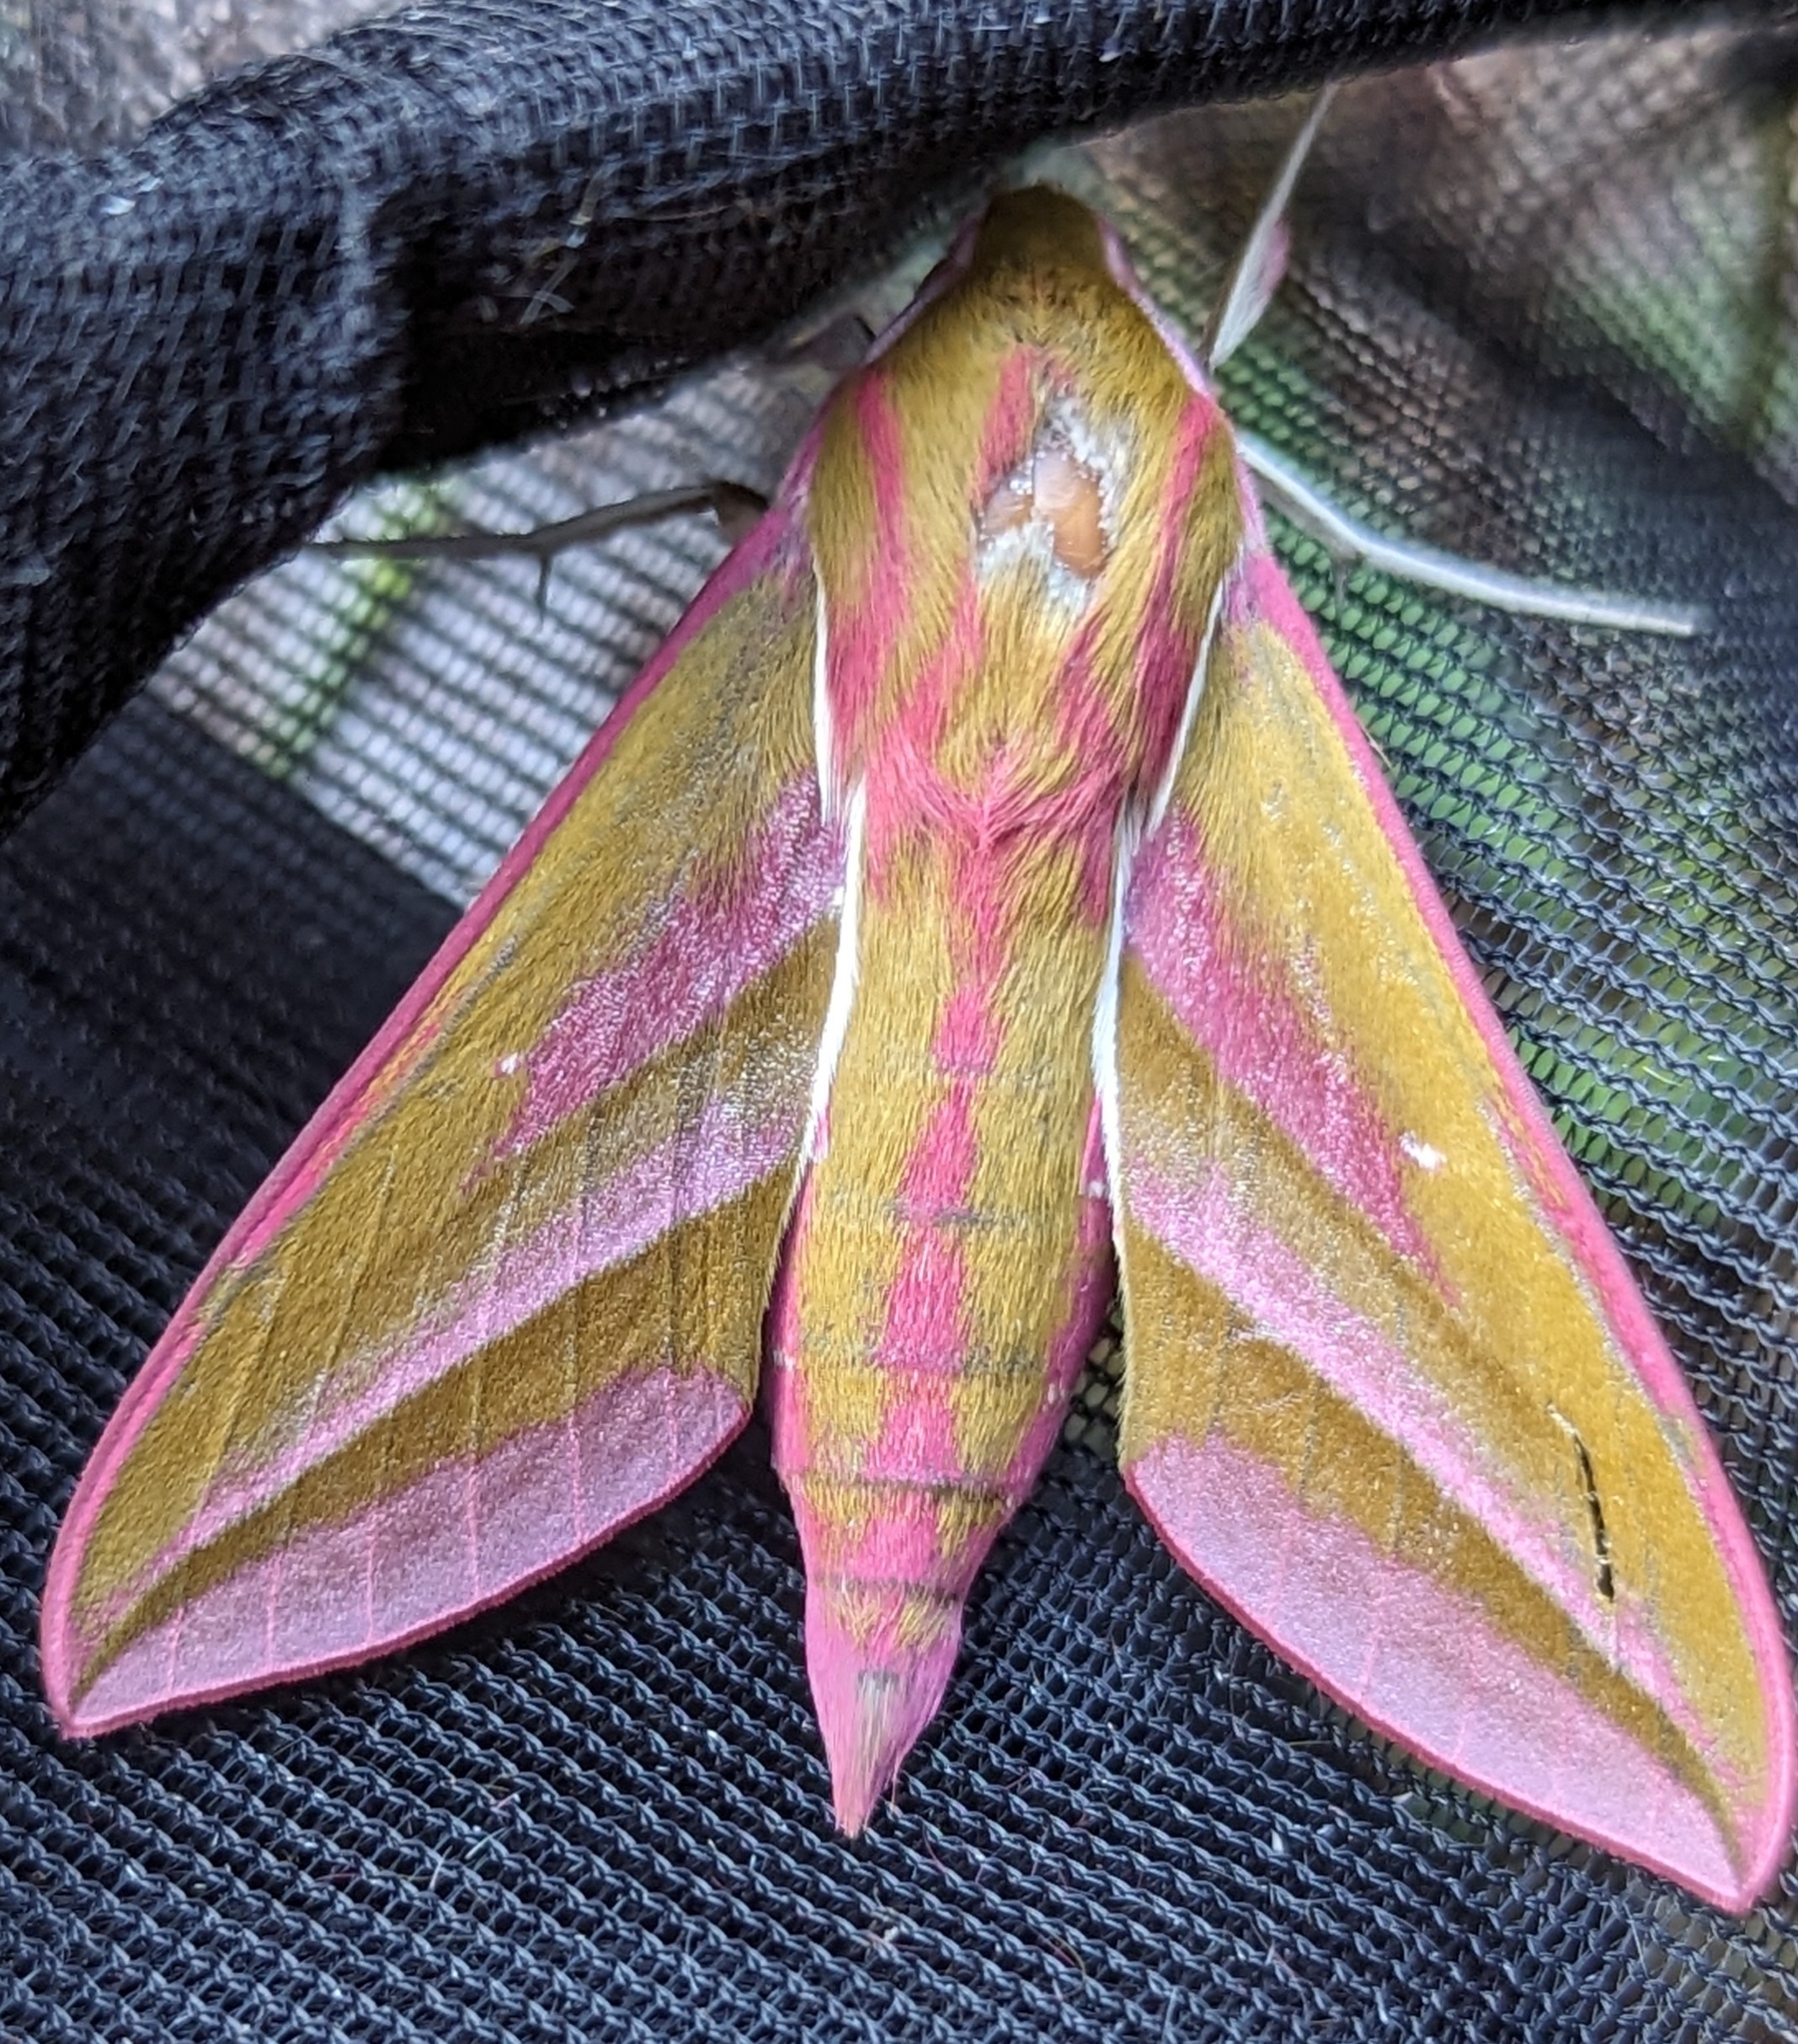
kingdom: Animalia
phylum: Arthropoda
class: Insecta
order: Lepidoptera
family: Sphingidae
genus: Deilephila
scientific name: Deilephila elpenor
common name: Elephant hawk-moth
